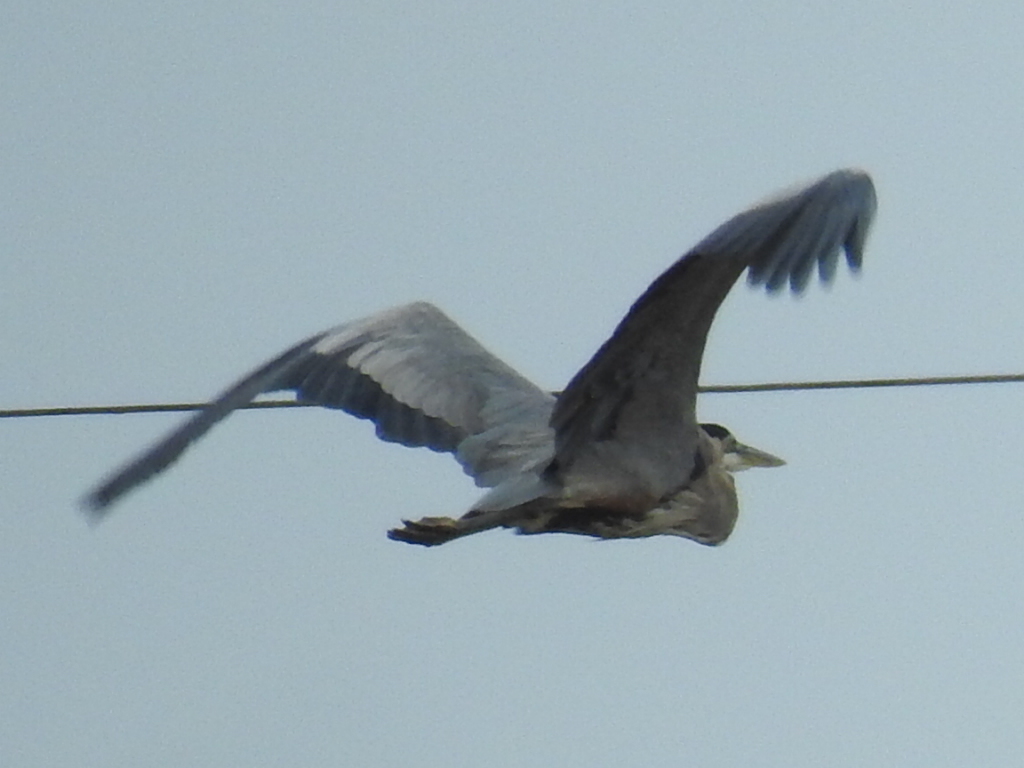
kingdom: Animalia
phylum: Chordata
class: Aves
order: Pelecaniformes
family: Ardeidae
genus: Ardea
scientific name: Ardea herodias
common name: Great blue heron
